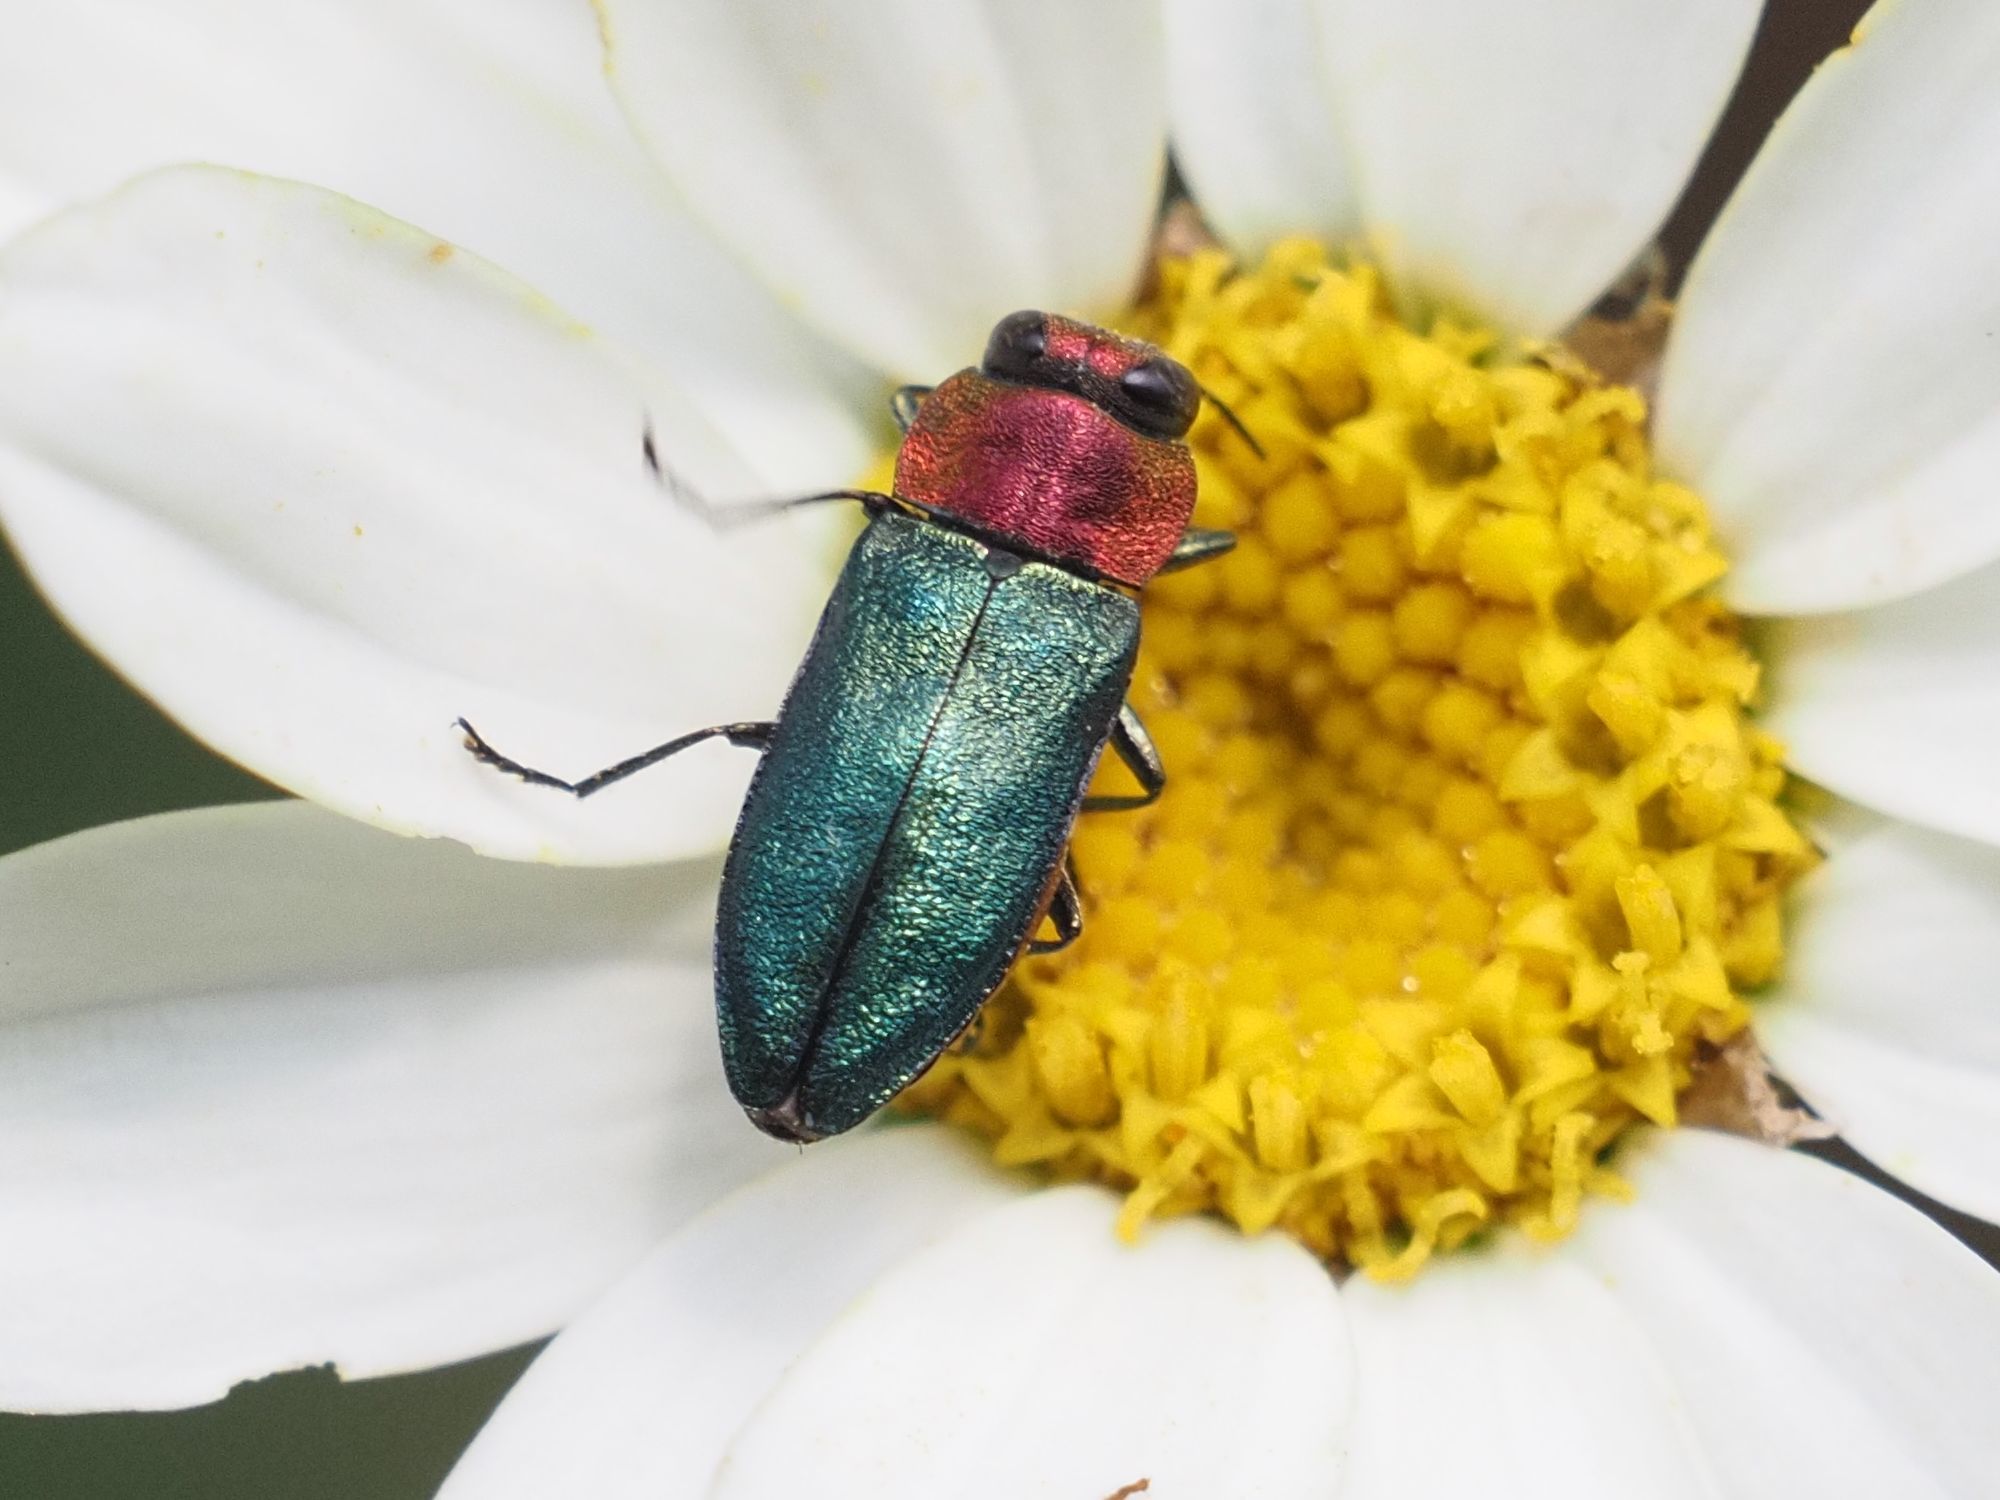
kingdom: Animalia
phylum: Arthropoda
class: Insecta
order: Coleoptera
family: Buprestidae
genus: Anthaxia
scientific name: Anthaxia nitidula
